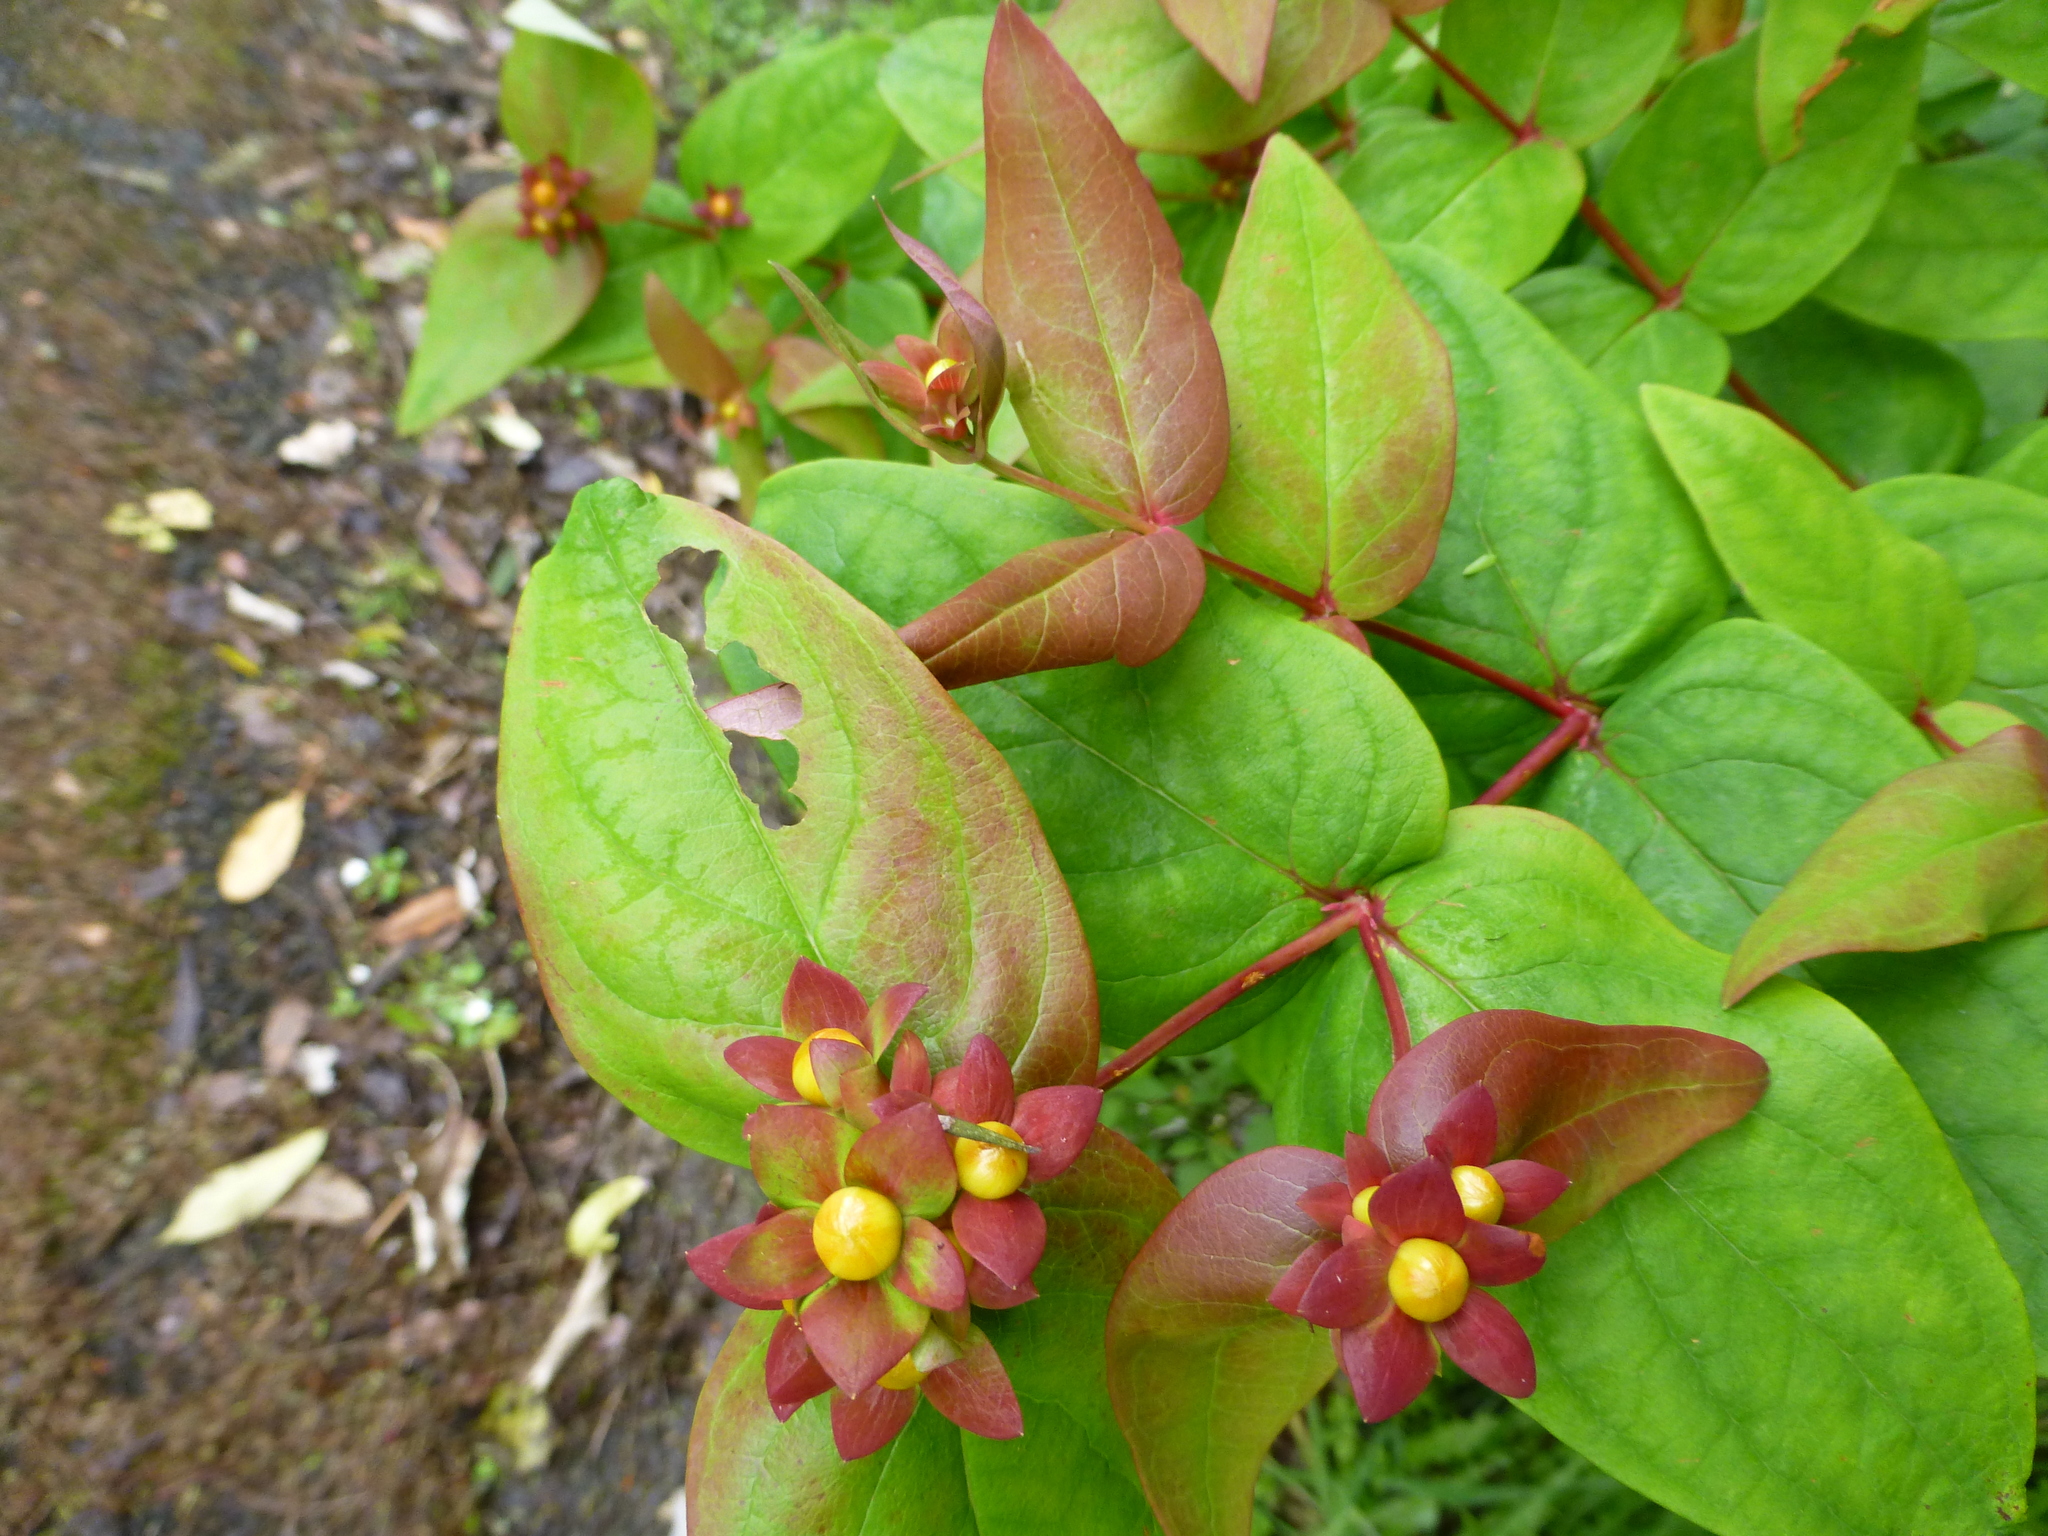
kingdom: Plantae
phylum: Tracheophyta
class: Magnoliopsida
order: Malpighiales
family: Hypericaceae
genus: Hypericum
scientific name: Hypericum androsaemum
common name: Sweet-amber
